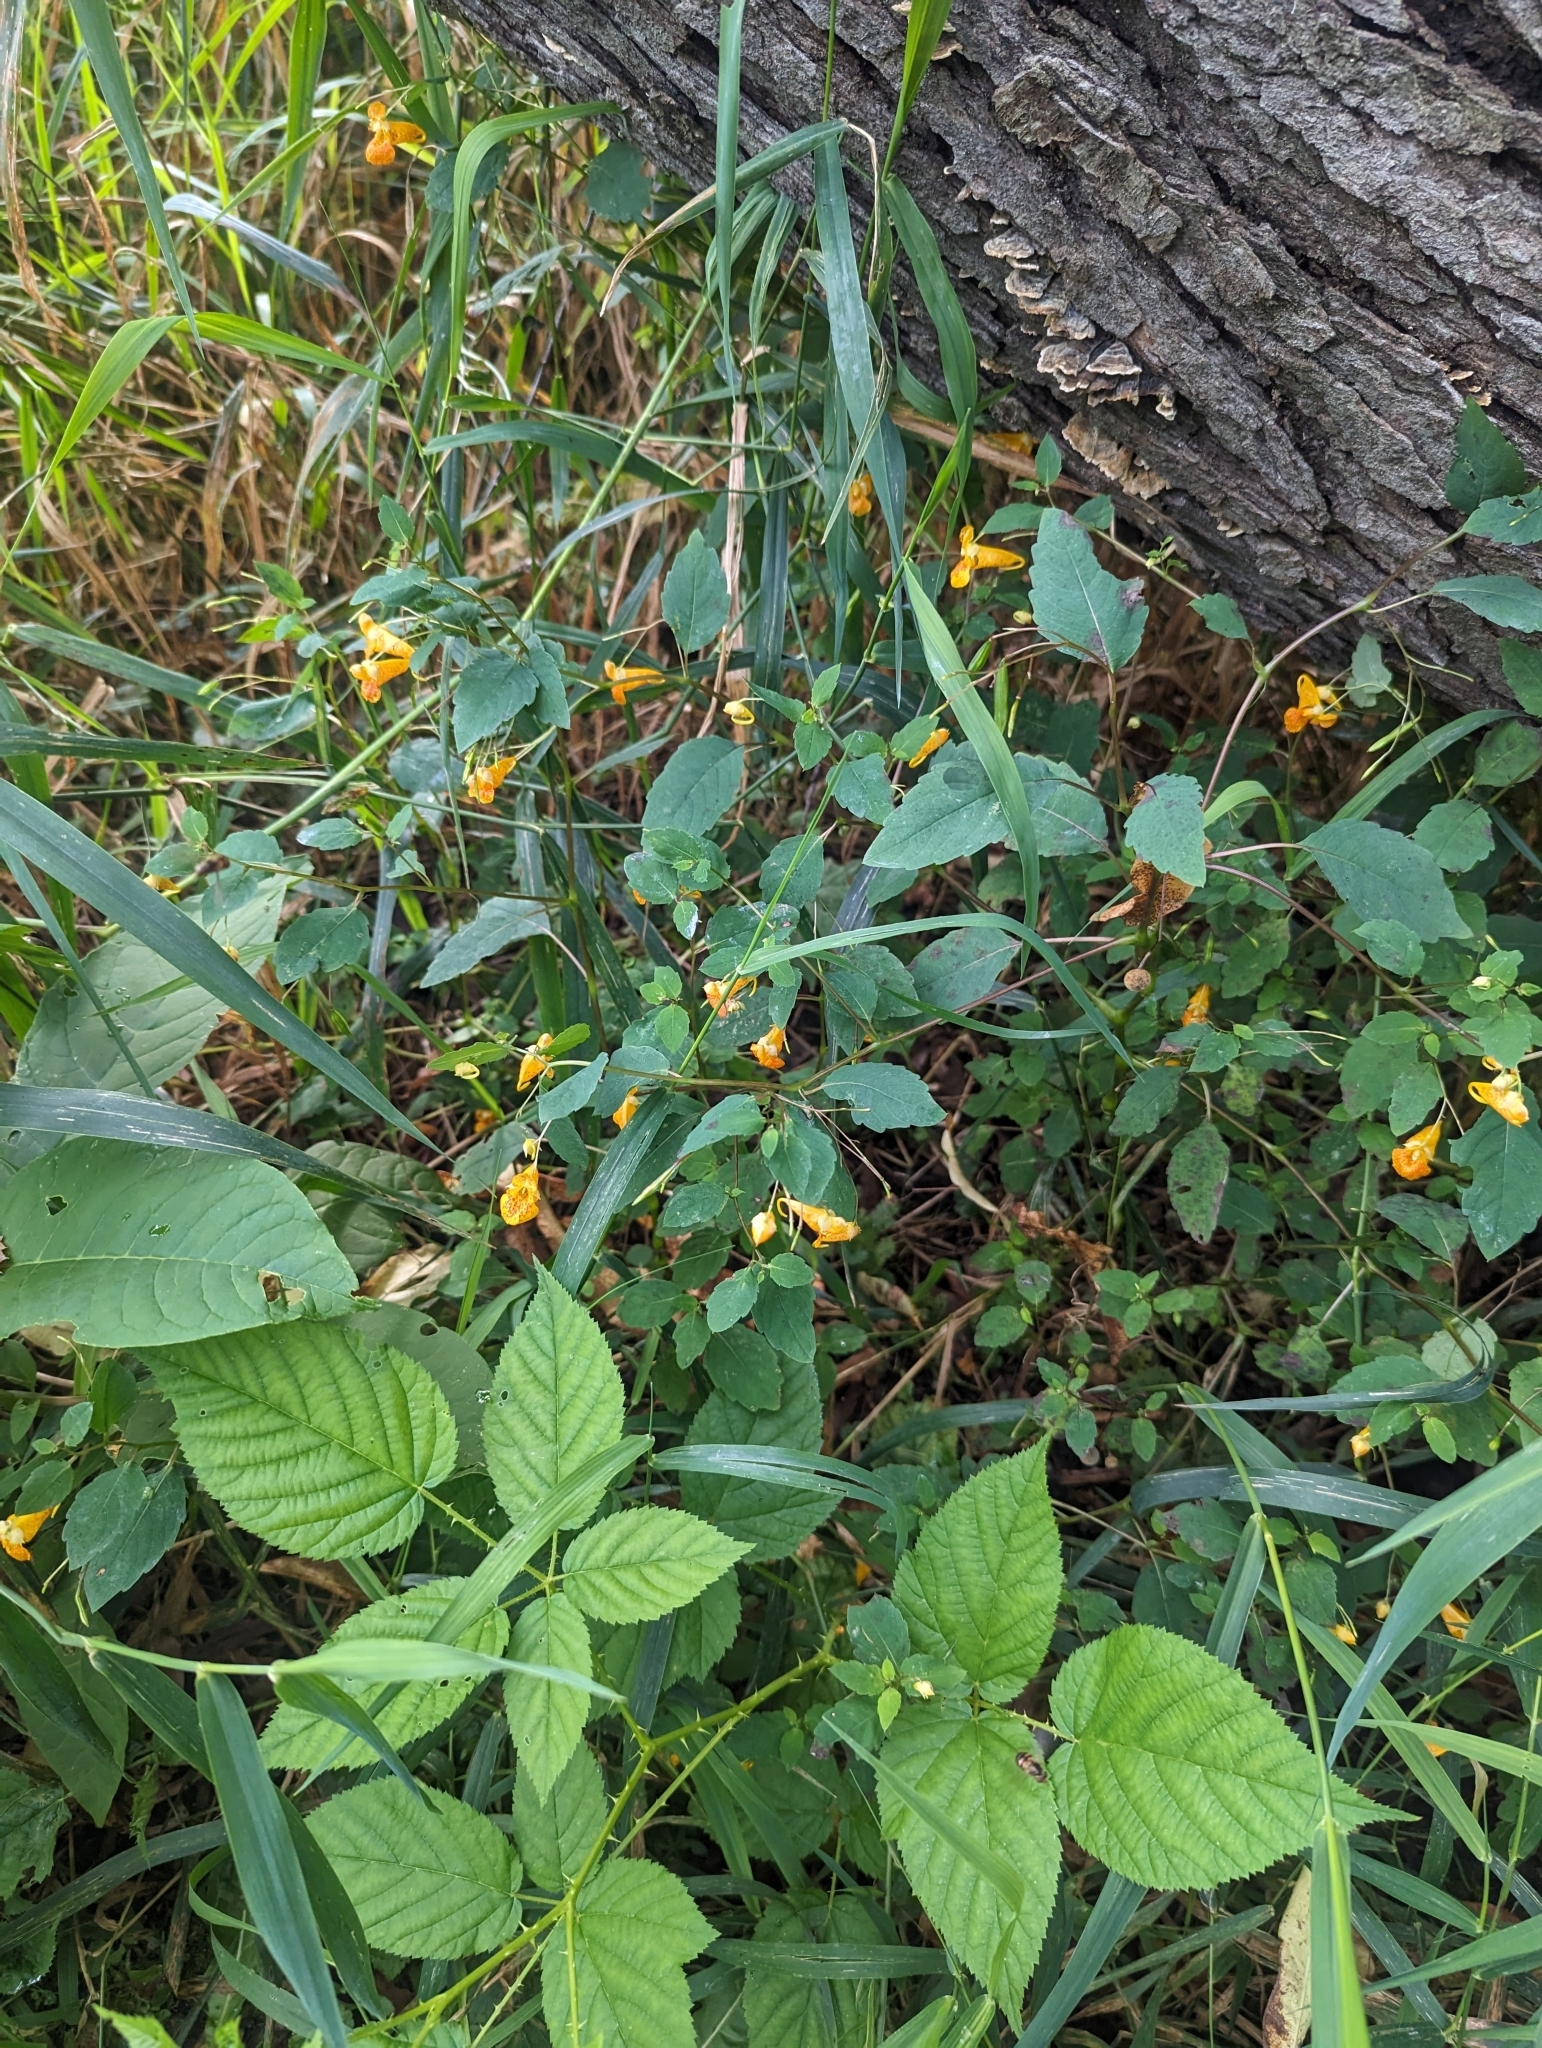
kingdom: Plantae
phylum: Tracheophyta
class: Magnoliopsida
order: Ericales
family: Balsaminaceae
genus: Impatiens
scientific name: Impatiens capensis
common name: Orange balsam
